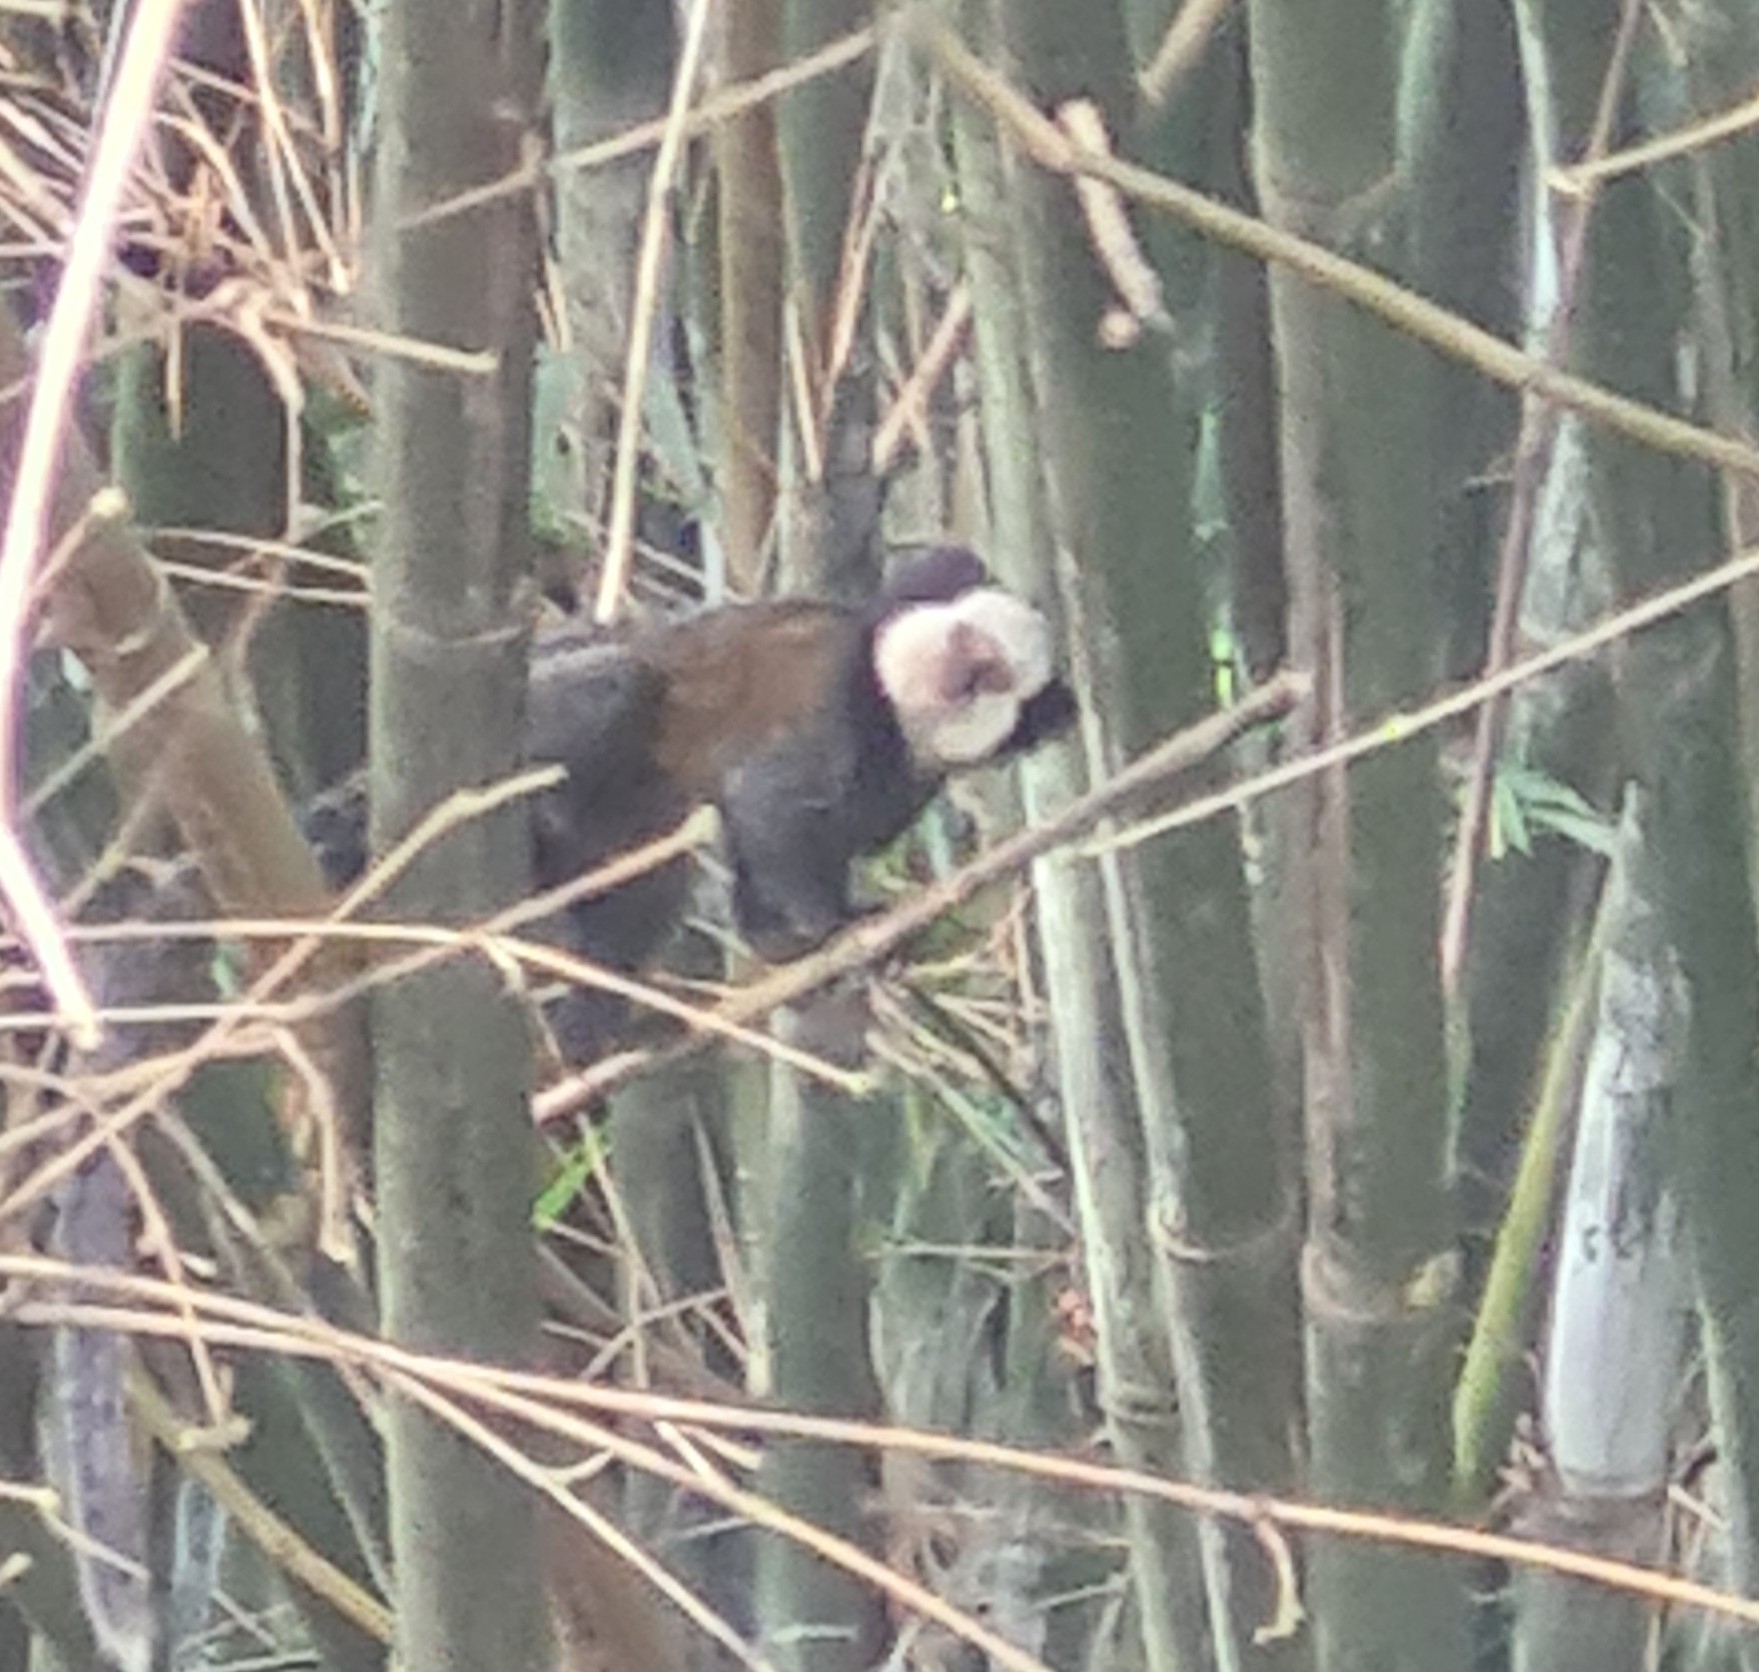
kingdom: Animalia
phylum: Chordata
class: Mammalia
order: Primates
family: Callitrichidae
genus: Callithrix
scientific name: Callithrix geoffroyi
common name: White-headed marmoset
